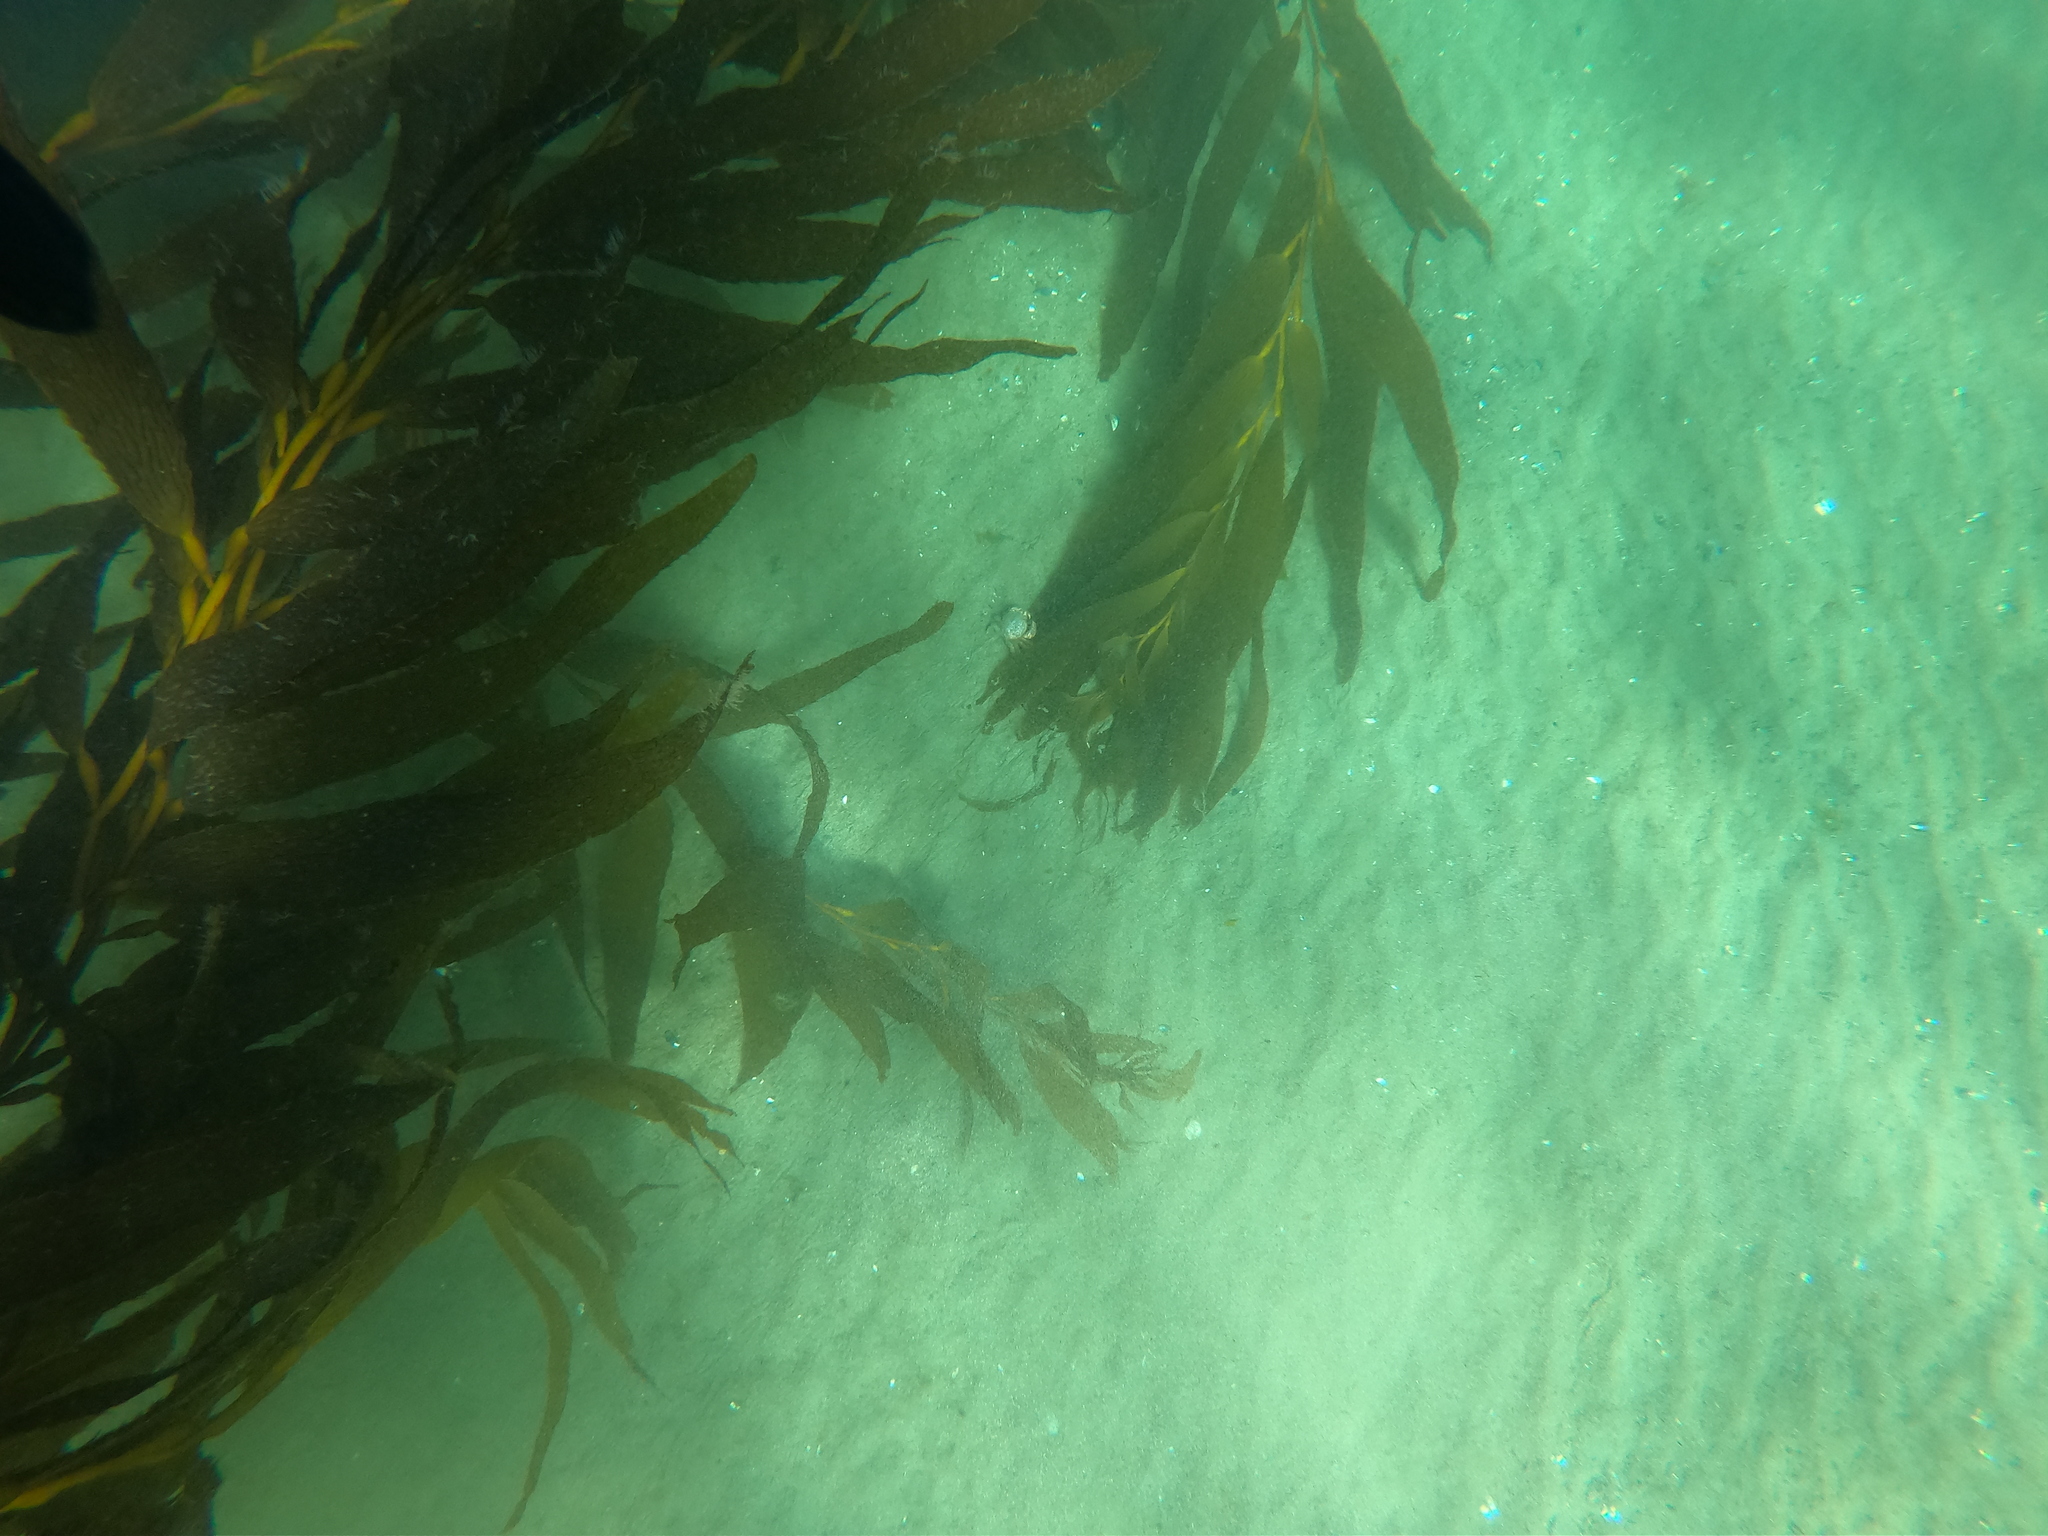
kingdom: Animalia
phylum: Arthropoda
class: Malacostraca
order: Decapoda
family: Trichopeltariidae
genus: Peltarion
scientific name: Peltarion spinulosum
